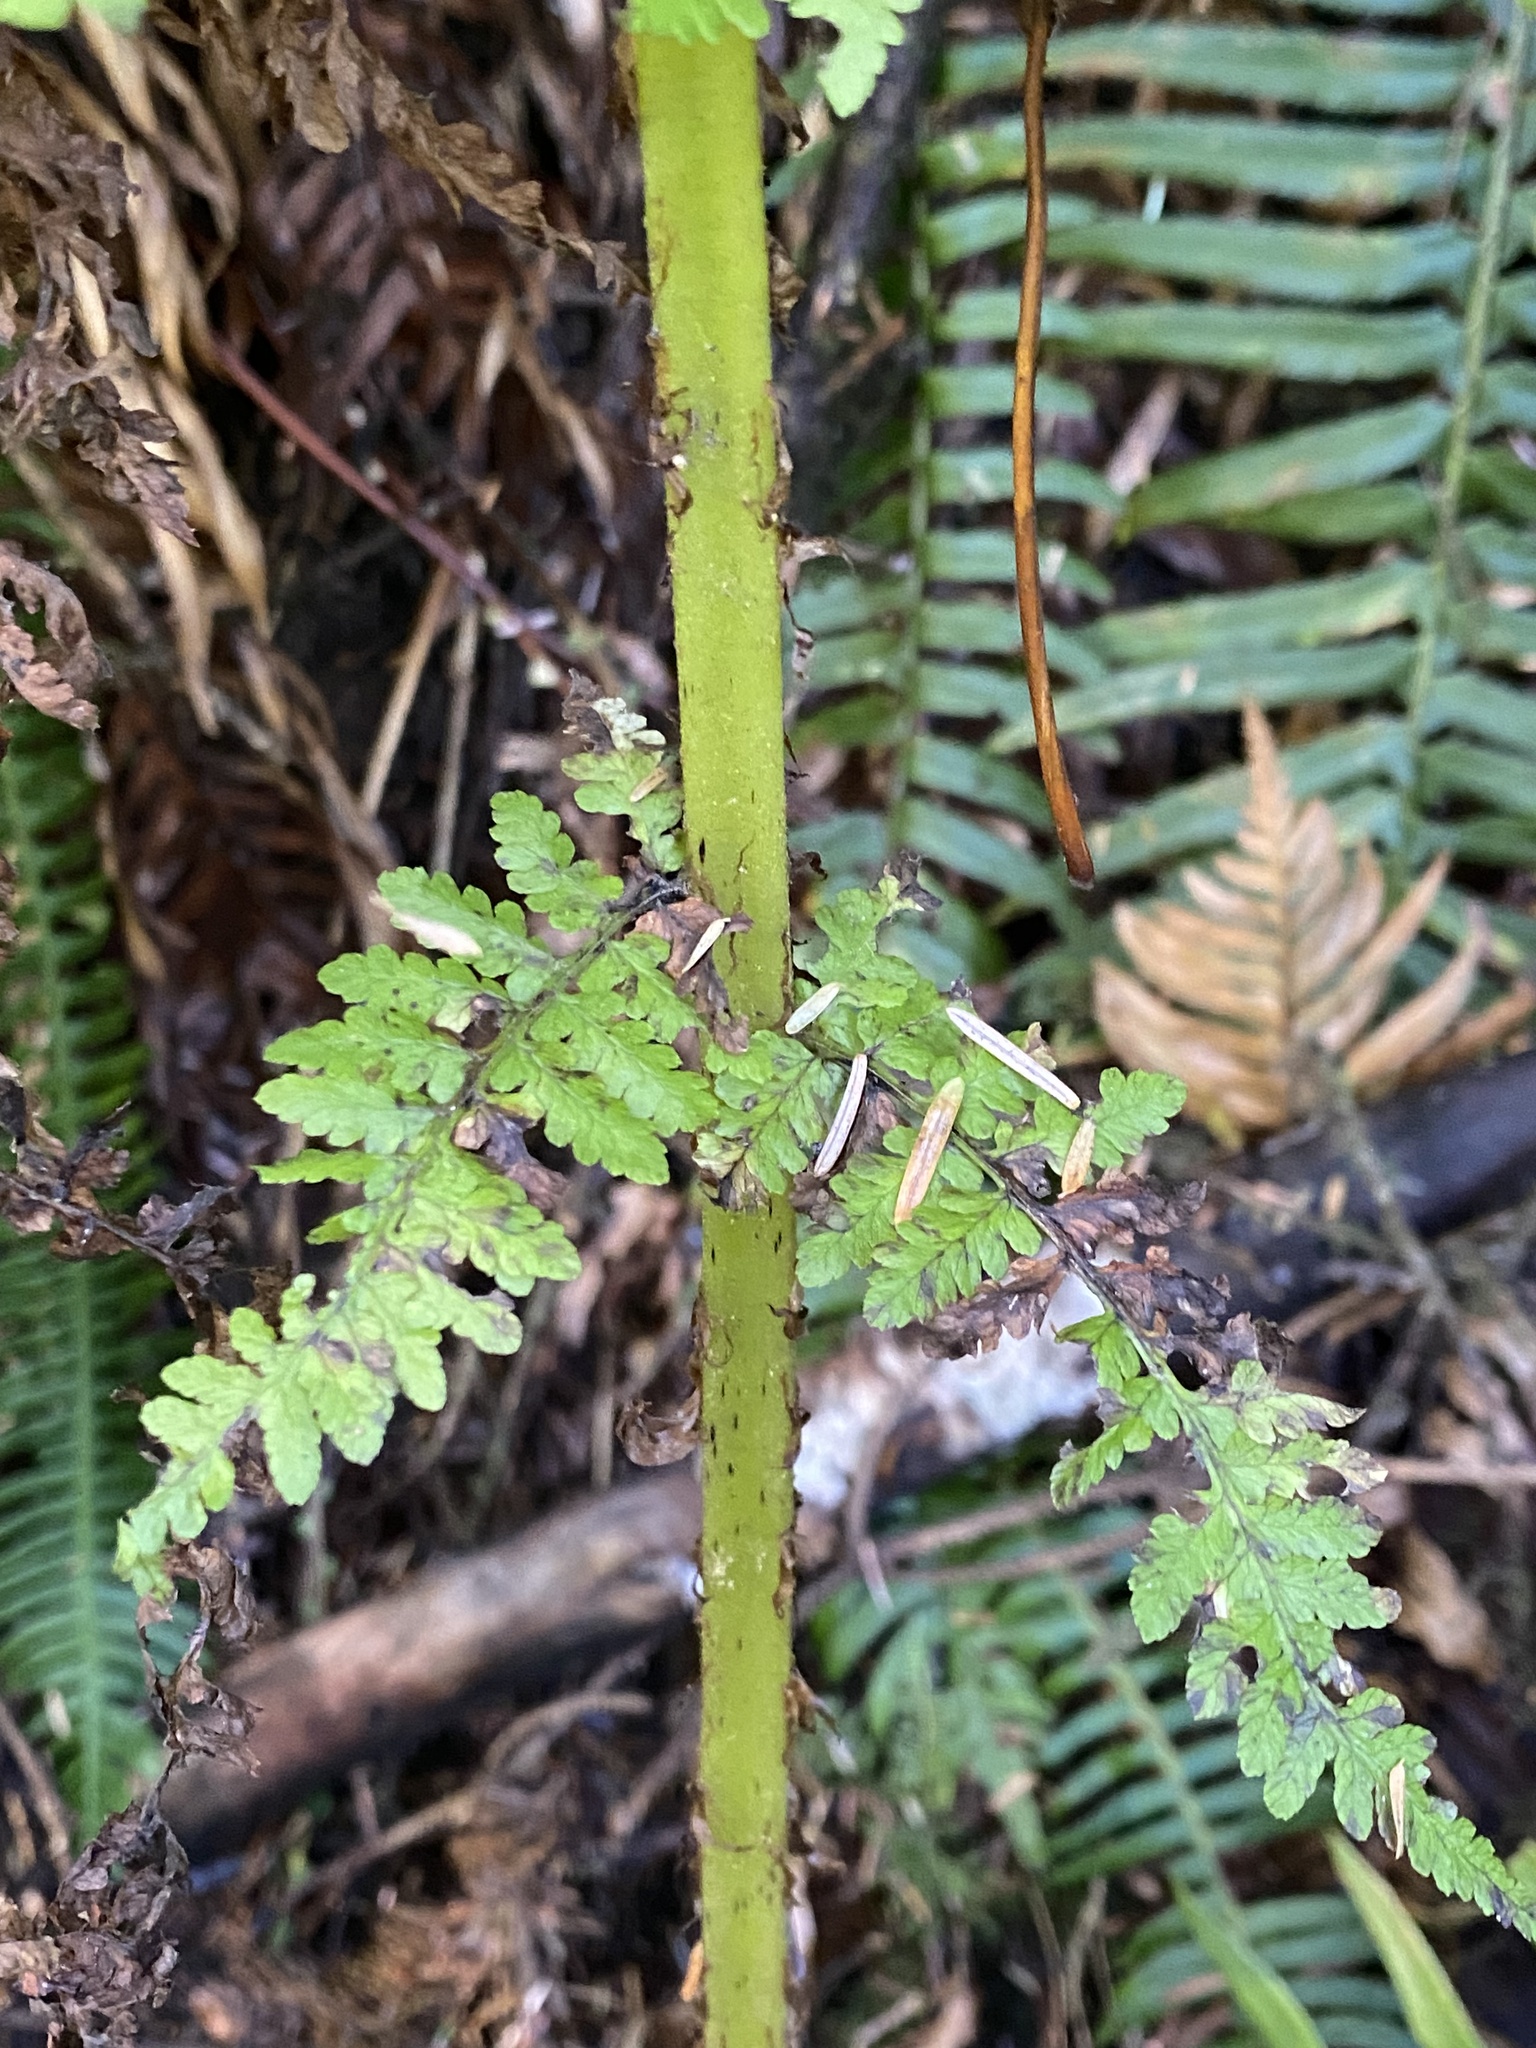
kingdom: Plantae
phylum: Tracheophyta
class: Polypodiopsida
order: Polypodiales
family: Athyriaceae
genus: Athyrium
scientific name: Athyrium cyclosorum
